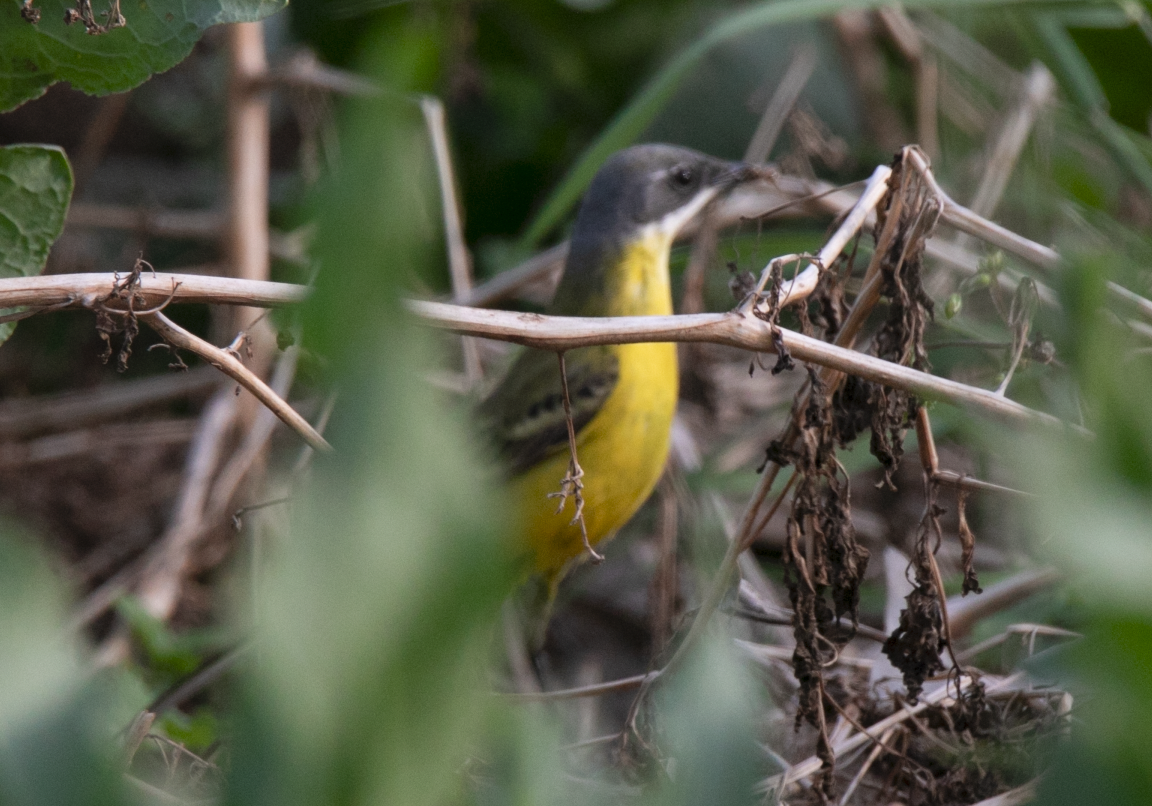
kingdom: Animalia
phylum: Chordata
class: Aves
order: Passeriformes
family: Motacillidae
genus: Motacilla
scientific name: Motacilla flava
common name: Western yellow wagtail
